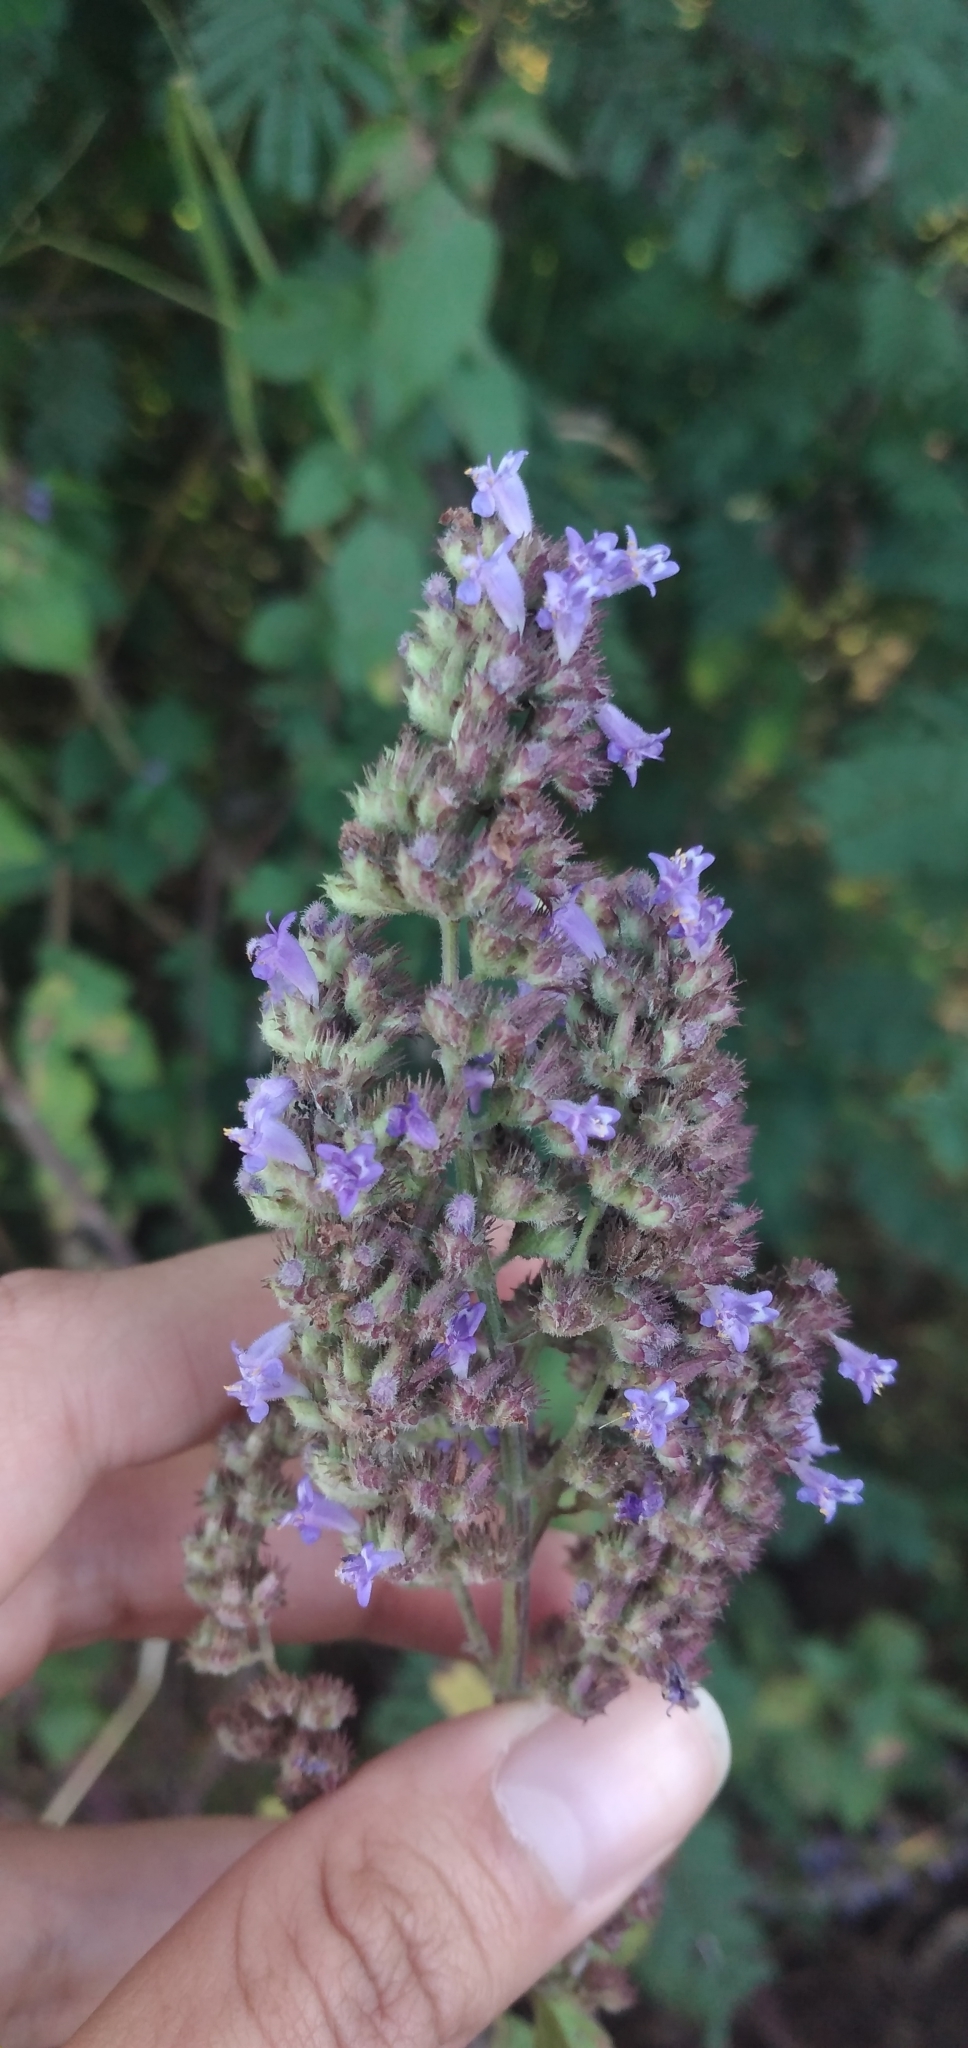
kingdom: Plantae
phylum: Tracheophyta
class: Magnoliopsida
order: Lamiales
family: Lamiaceae
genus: Cantinoa
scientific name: Cantinoa mutabilis
